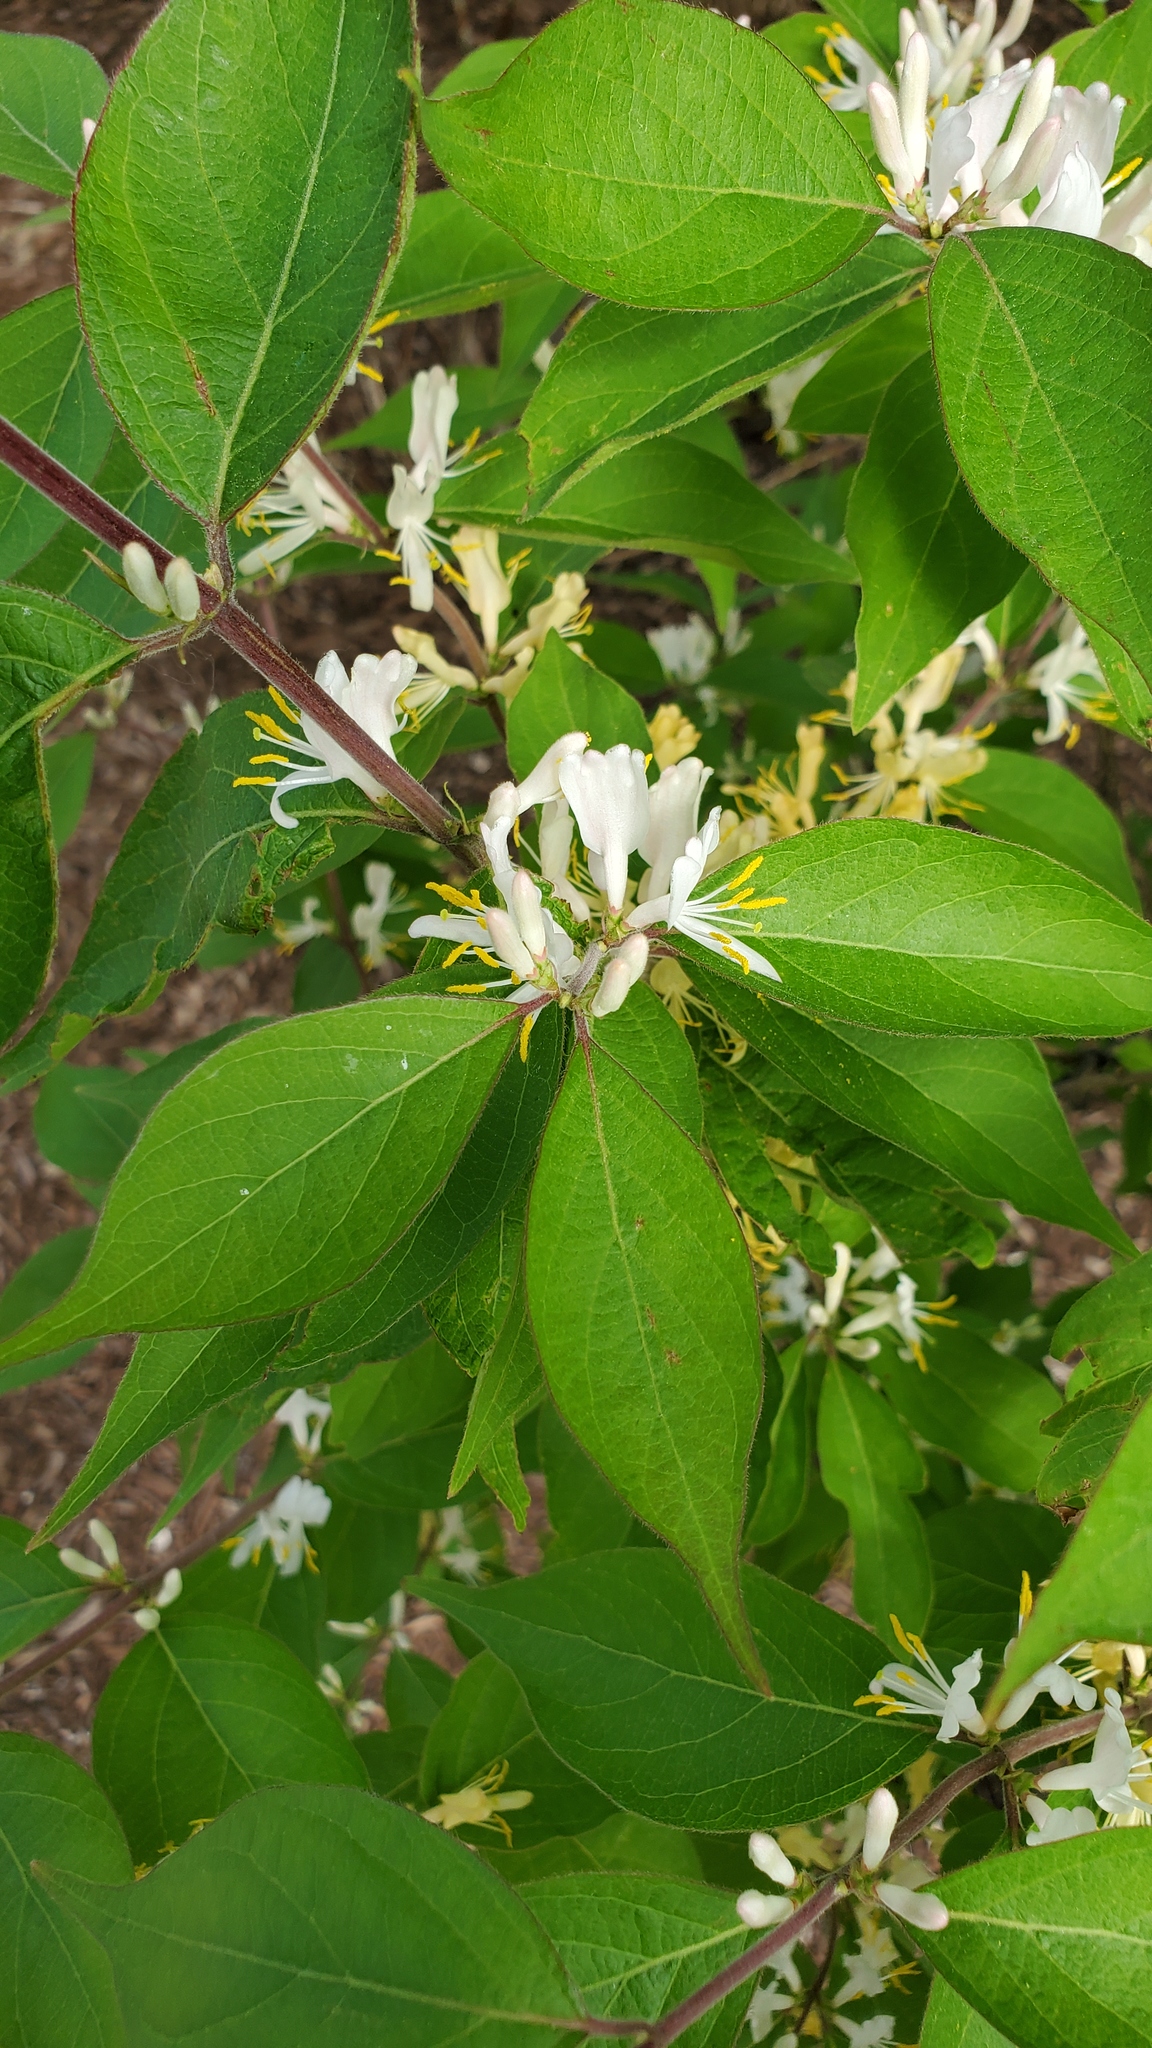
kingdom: Plantae
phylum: Tracheophyta
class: Magnoliopsida
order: Dipsacales
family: Caprifoliaceae
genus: Lonicera
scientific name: Lonicera maackii
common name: Amur honeysuckle
